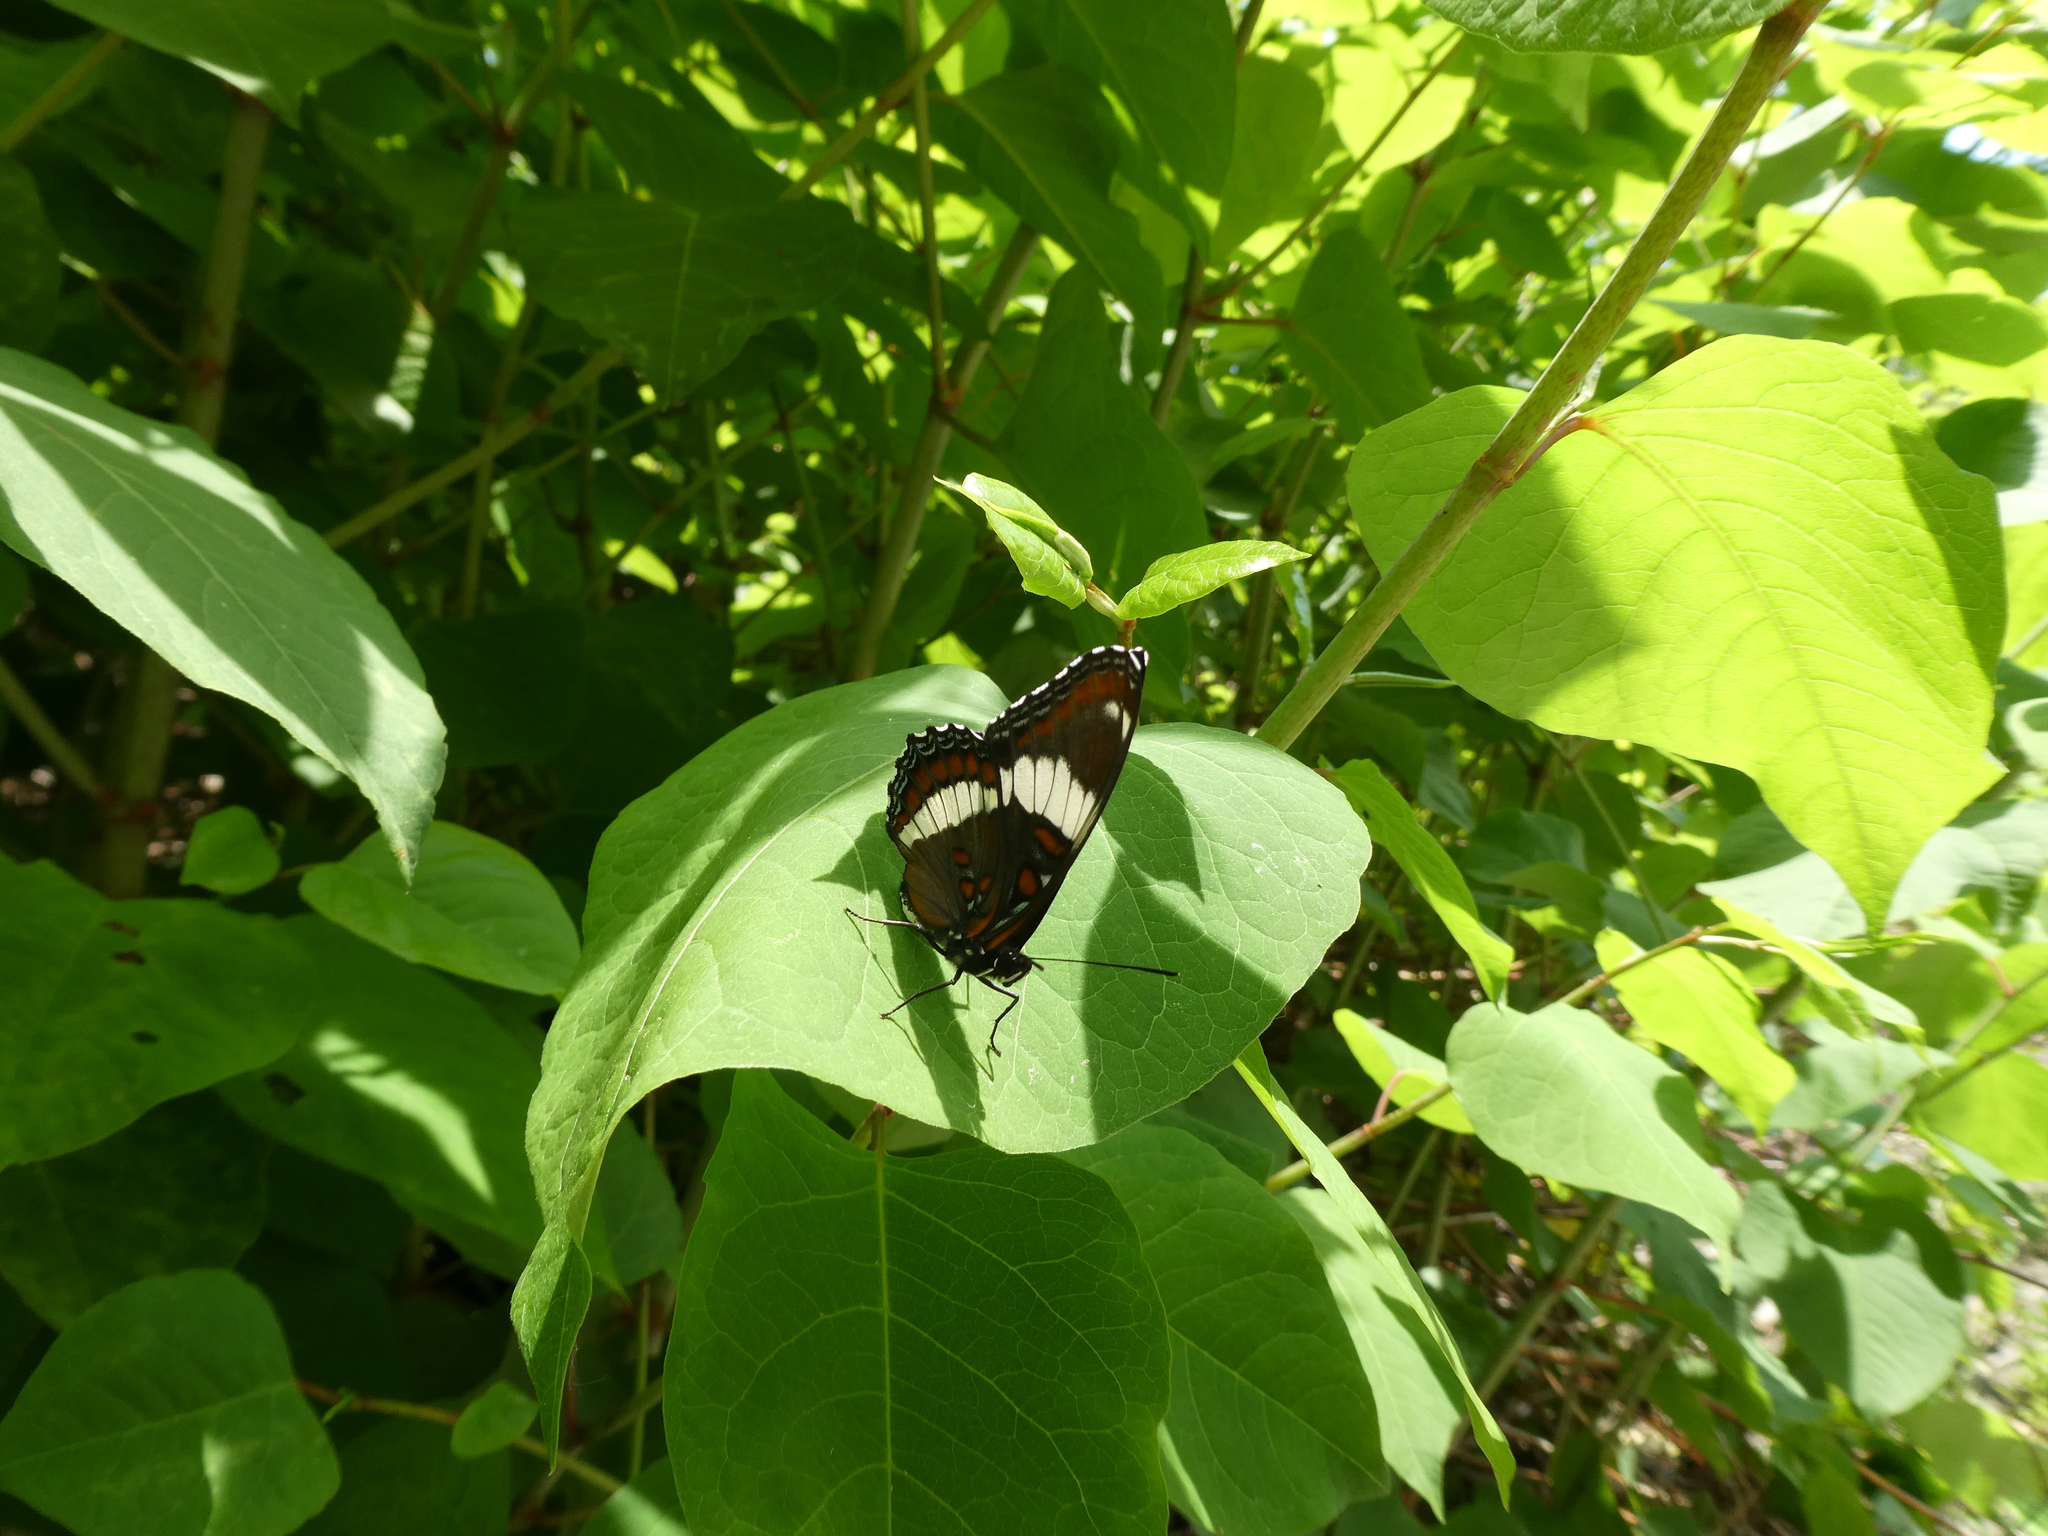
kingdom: Animalia
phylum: Arthropoda
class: Insecta
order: Lepidoptera
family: Nymphalidae
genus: Limenitis
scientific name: Limenitis arthemis
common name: Red-spotted admiral
